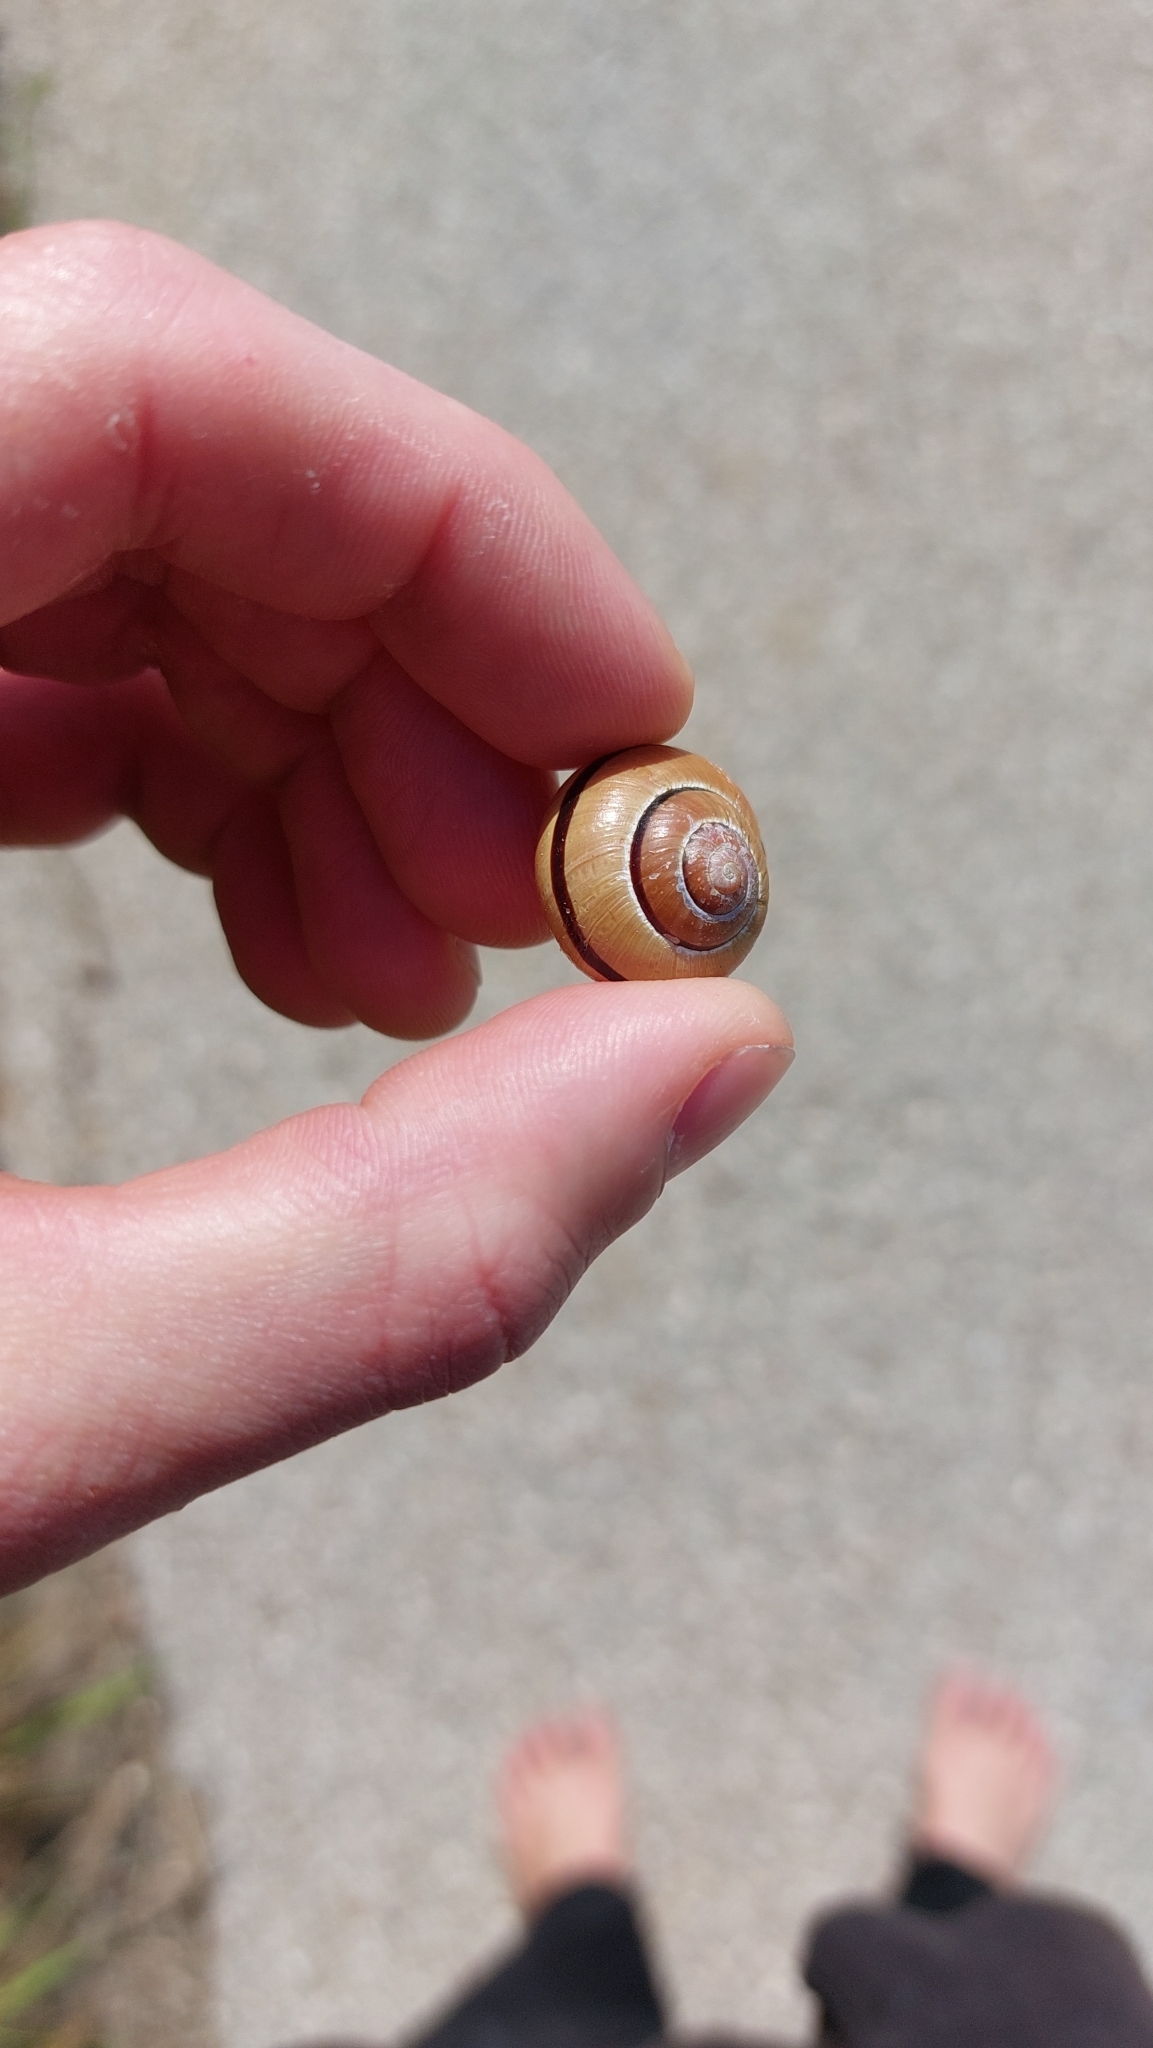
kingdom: Animalia
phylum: Mollusca
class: Gastropoda
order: Stylommatophora
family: Helicidae
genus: Cepaea
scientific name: Cepaea nemoralis
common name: Grovesnail
